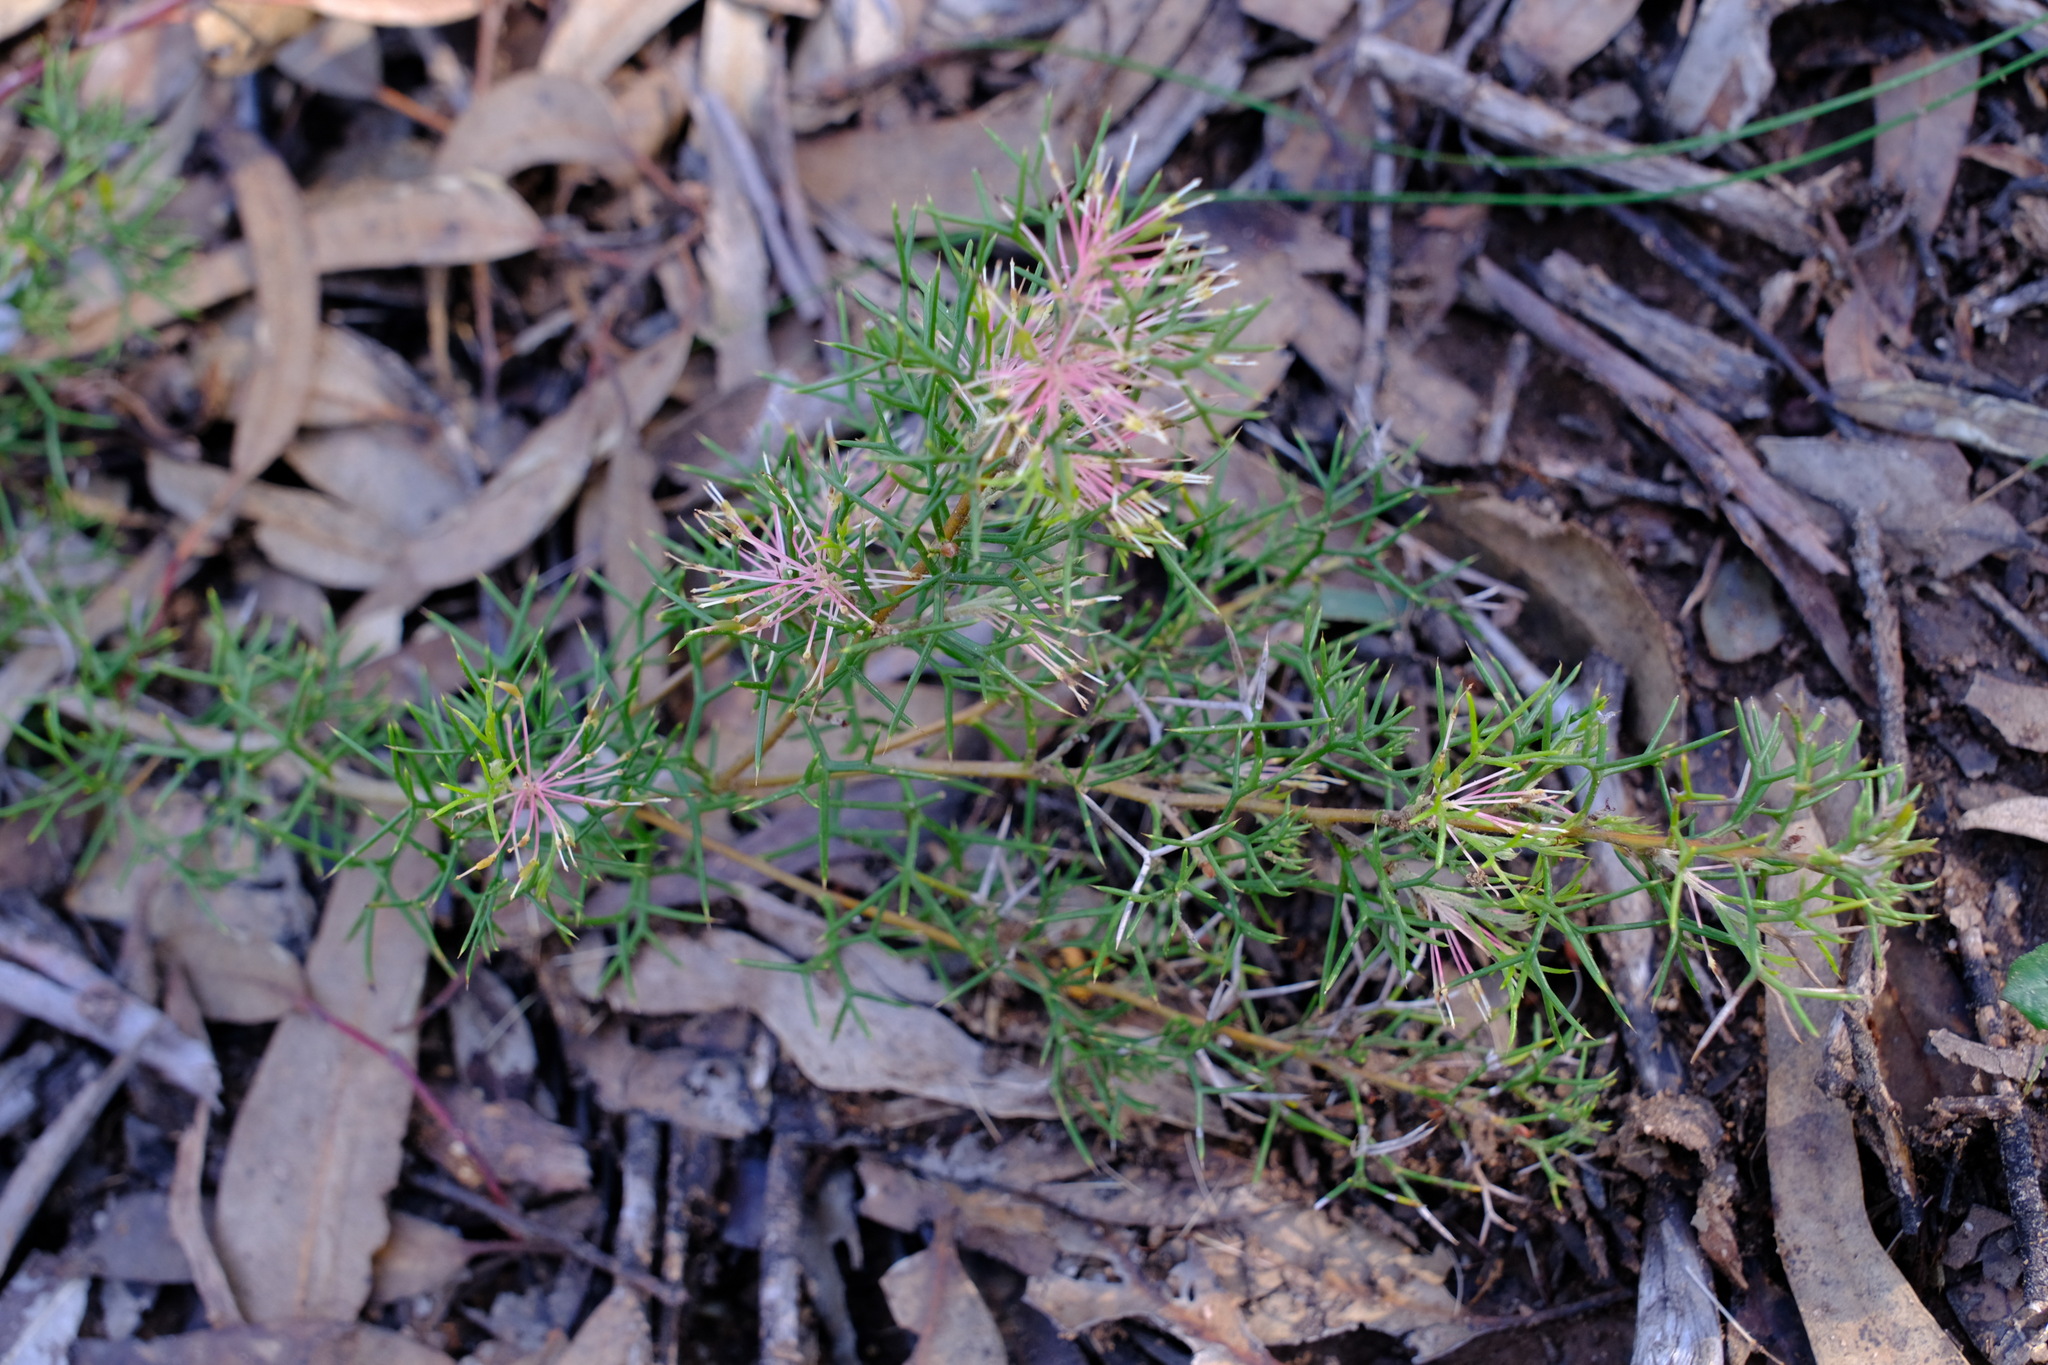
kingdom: Plantae
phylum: Tracheophyta
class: Magnoliopsida
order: Proteales
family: Proteaceae
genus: Hakea
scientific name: Hakea lissocarpha
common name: Honey bush
